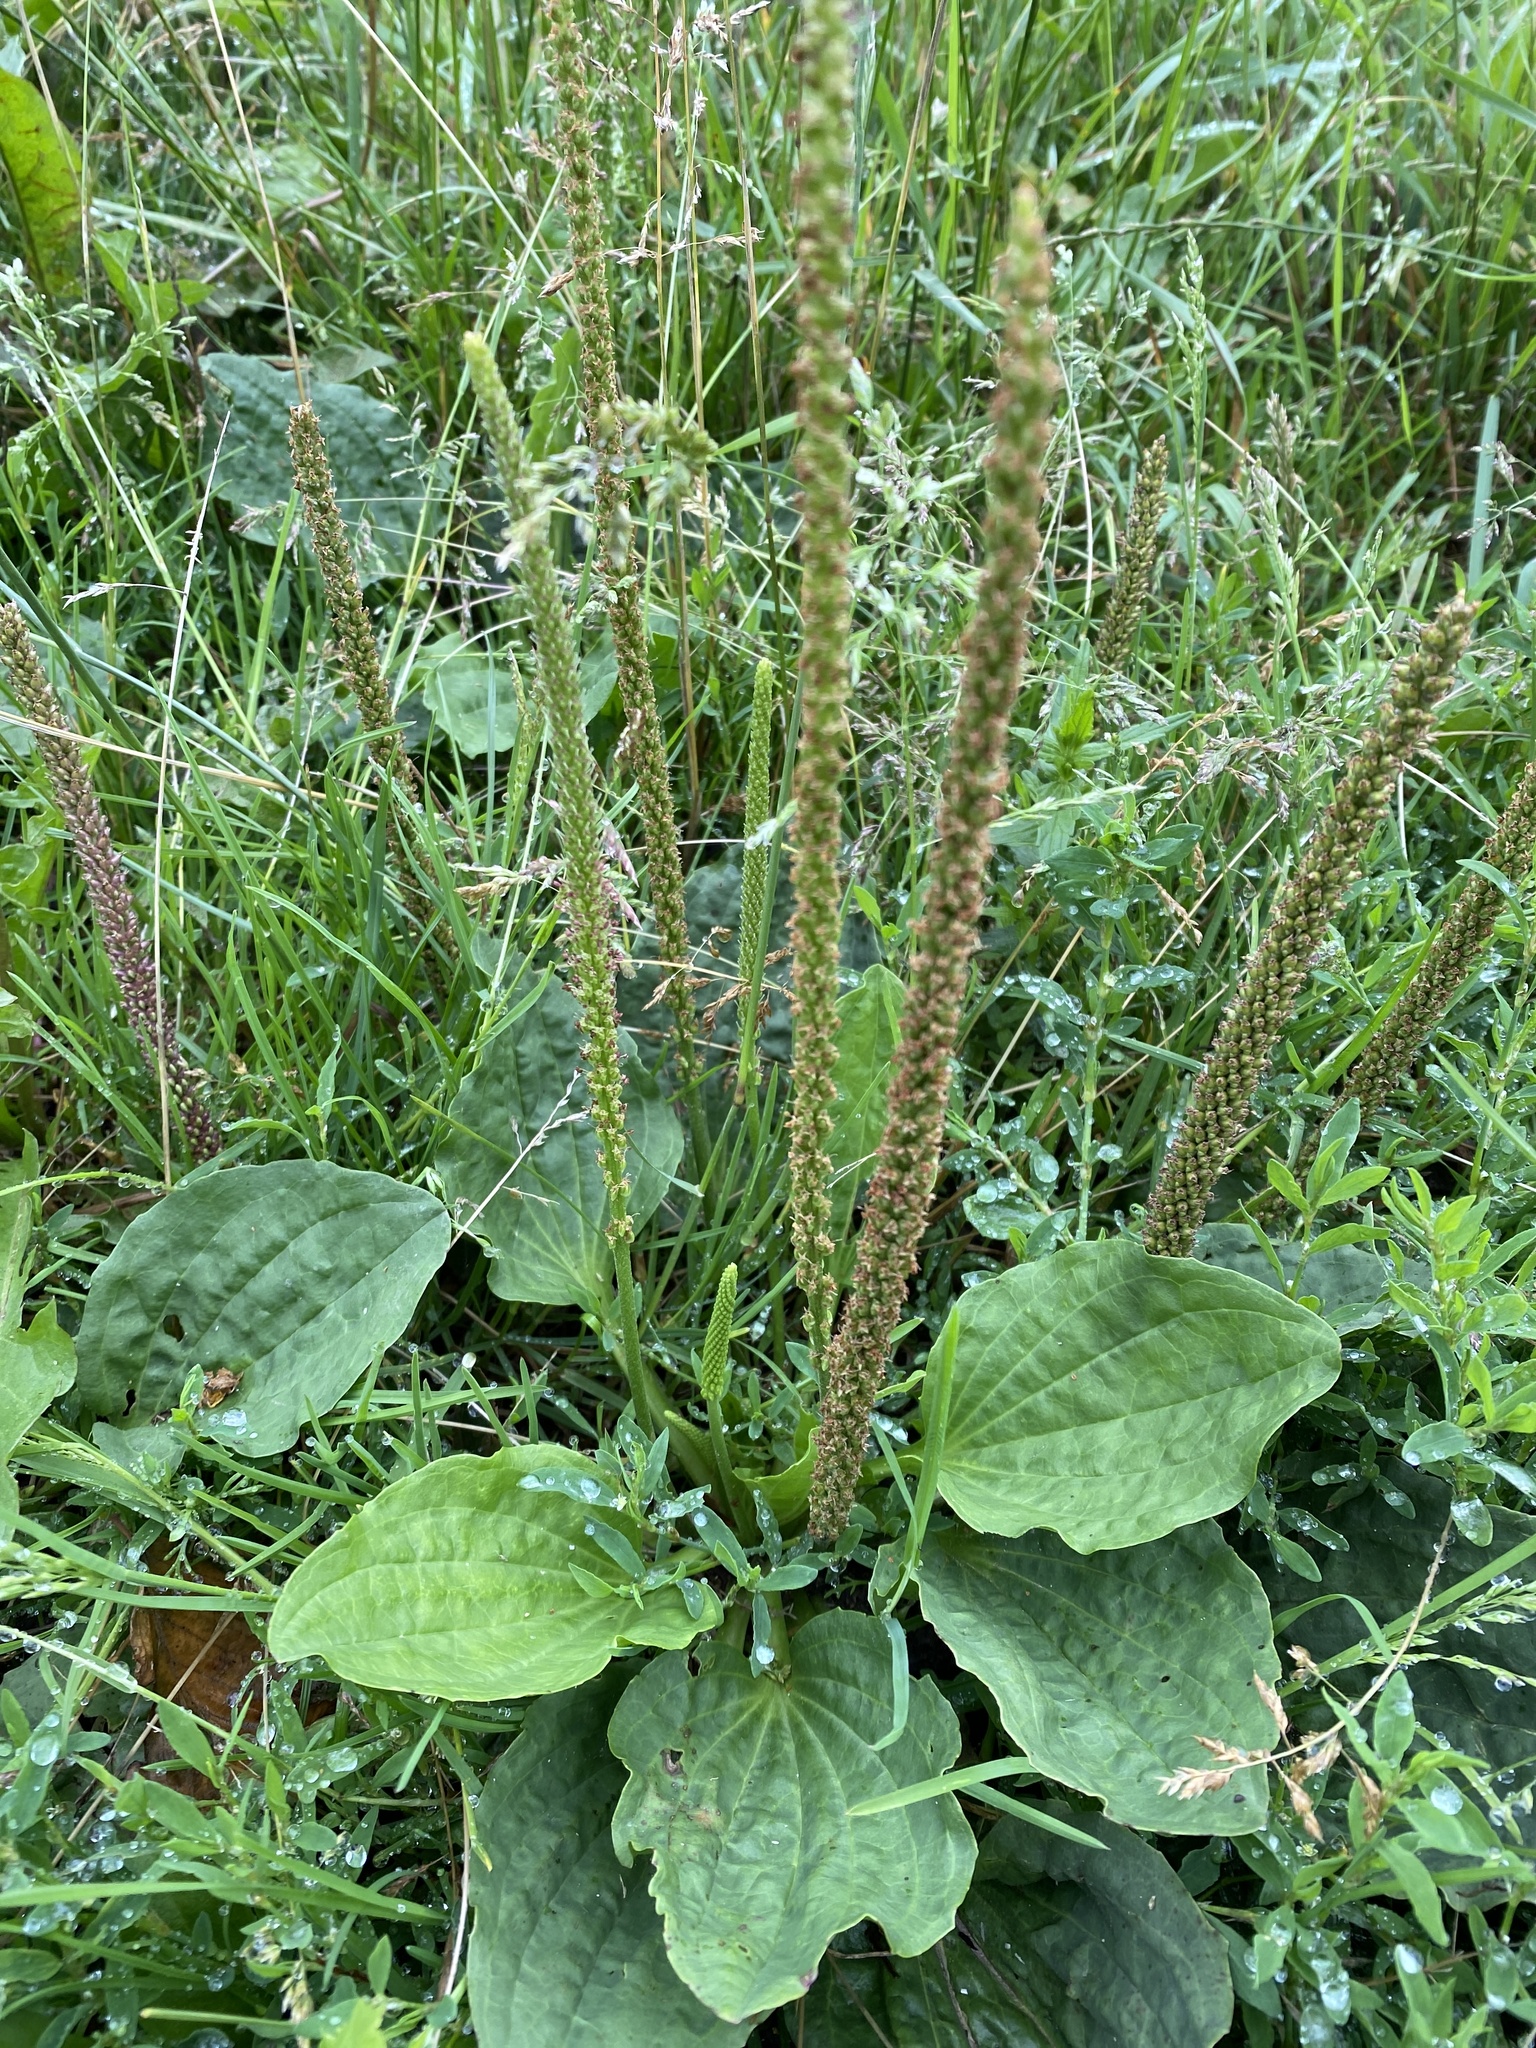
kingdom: Plantae
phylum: Tracheophyta
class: Magnoliopsida
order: Lamiales
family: Plantaginaceae
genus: Plantago
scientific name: Plantago major
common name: Common plantain
